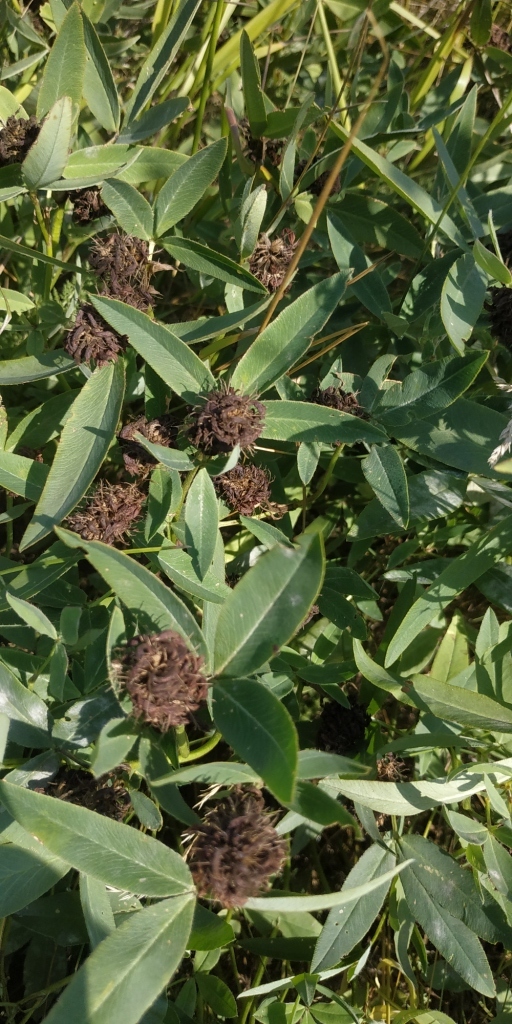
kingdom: Plantae
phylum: Tracheophyta
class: Magnoliopsida
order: Fabales
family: Fabaceae
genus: Trifolium
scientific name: Trifolium medium
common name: Zigzag clover
